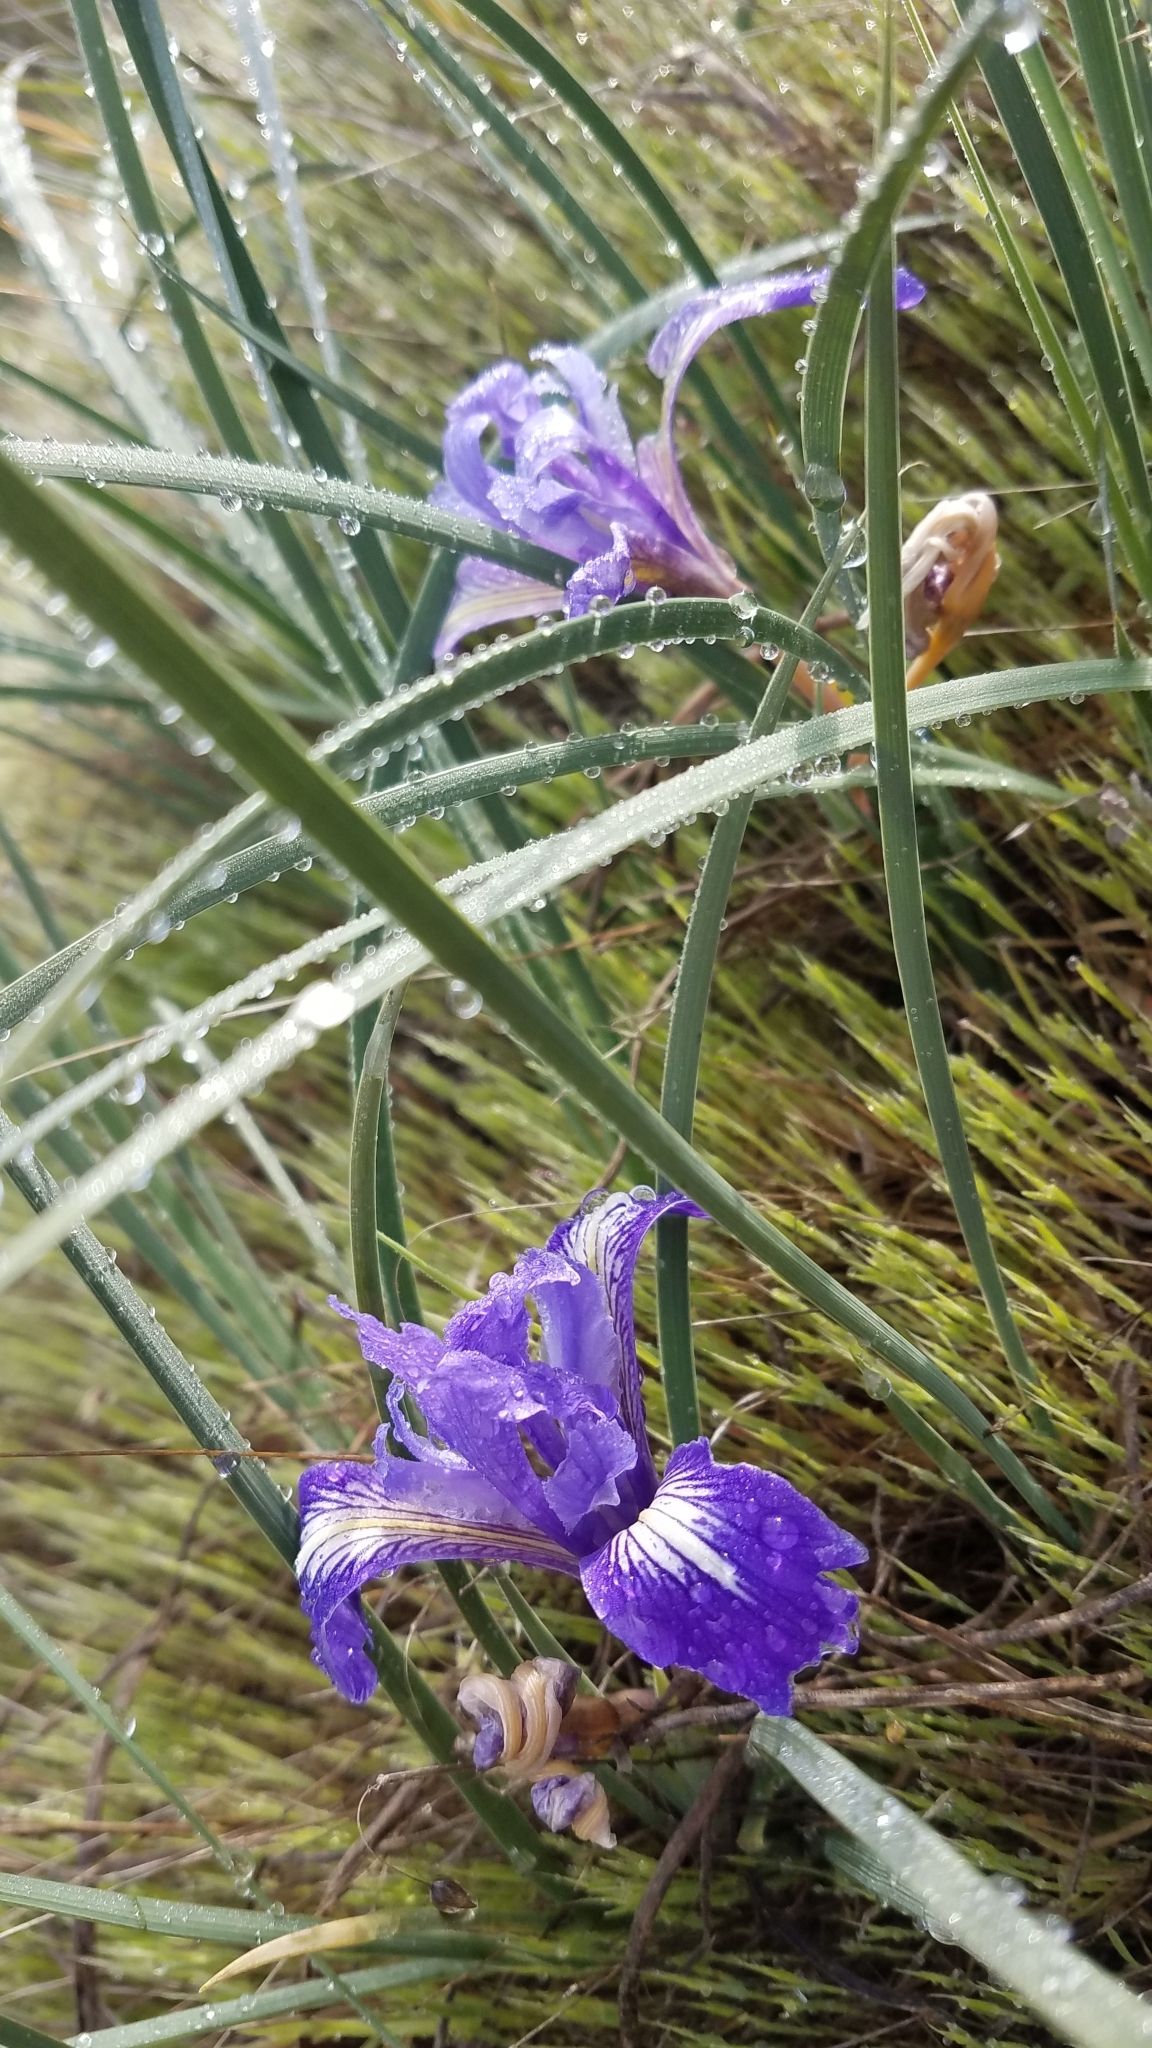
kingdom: Plantae
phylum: Tracheophyta
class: Liliopsida
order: Asparagales
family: Iridaceae
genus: Iris
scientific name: Iris macrosiphon
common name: Ground iris
